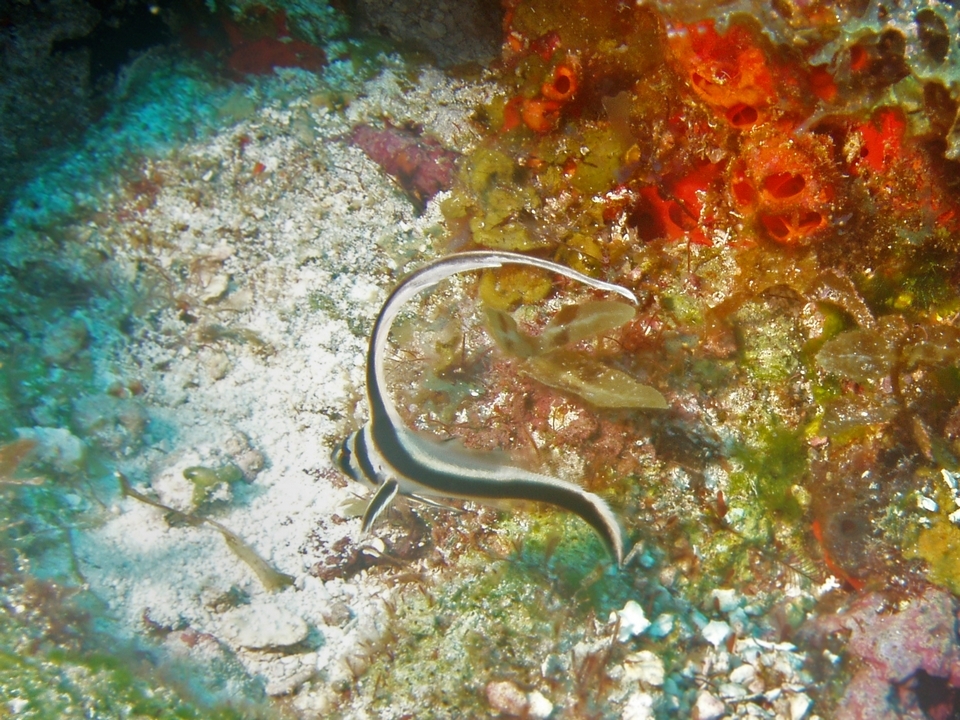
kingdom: Animalia
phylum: Chordata
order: Perciformes
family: Sciaenidae
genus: Equetus
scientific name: Equetus punctatus
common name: Spotted drum
